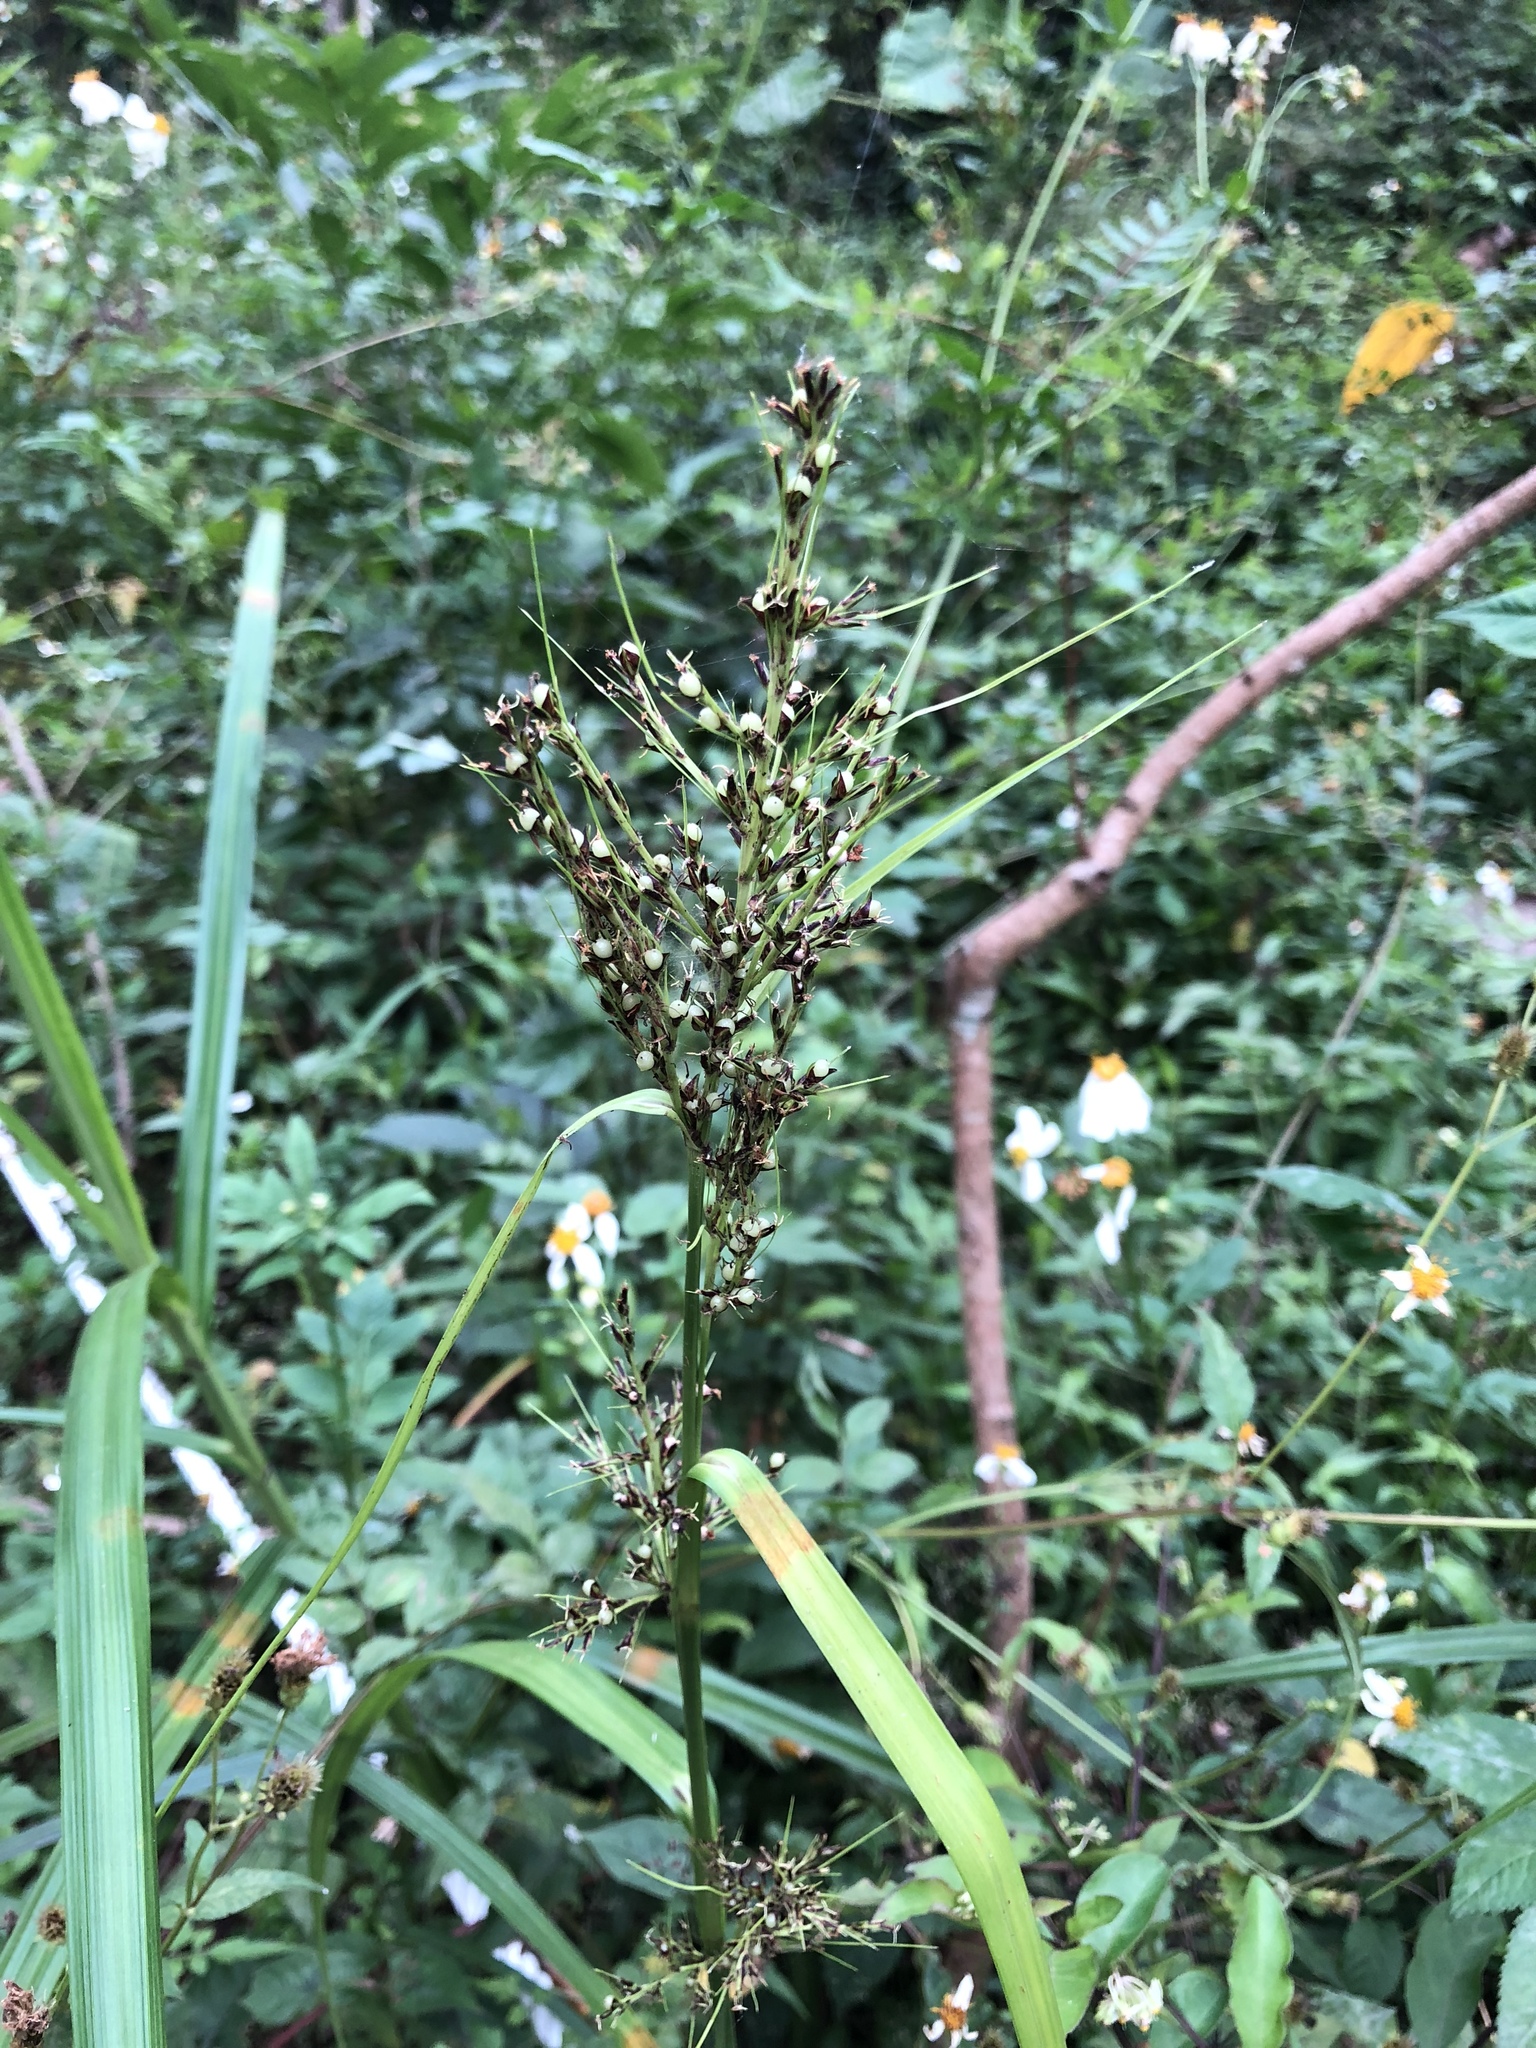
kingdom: Plantae
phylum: Tracheophyta
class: Liliopsida
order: Poales
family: Cyperaceae
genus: Scleria
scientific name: Scleria terrestris
